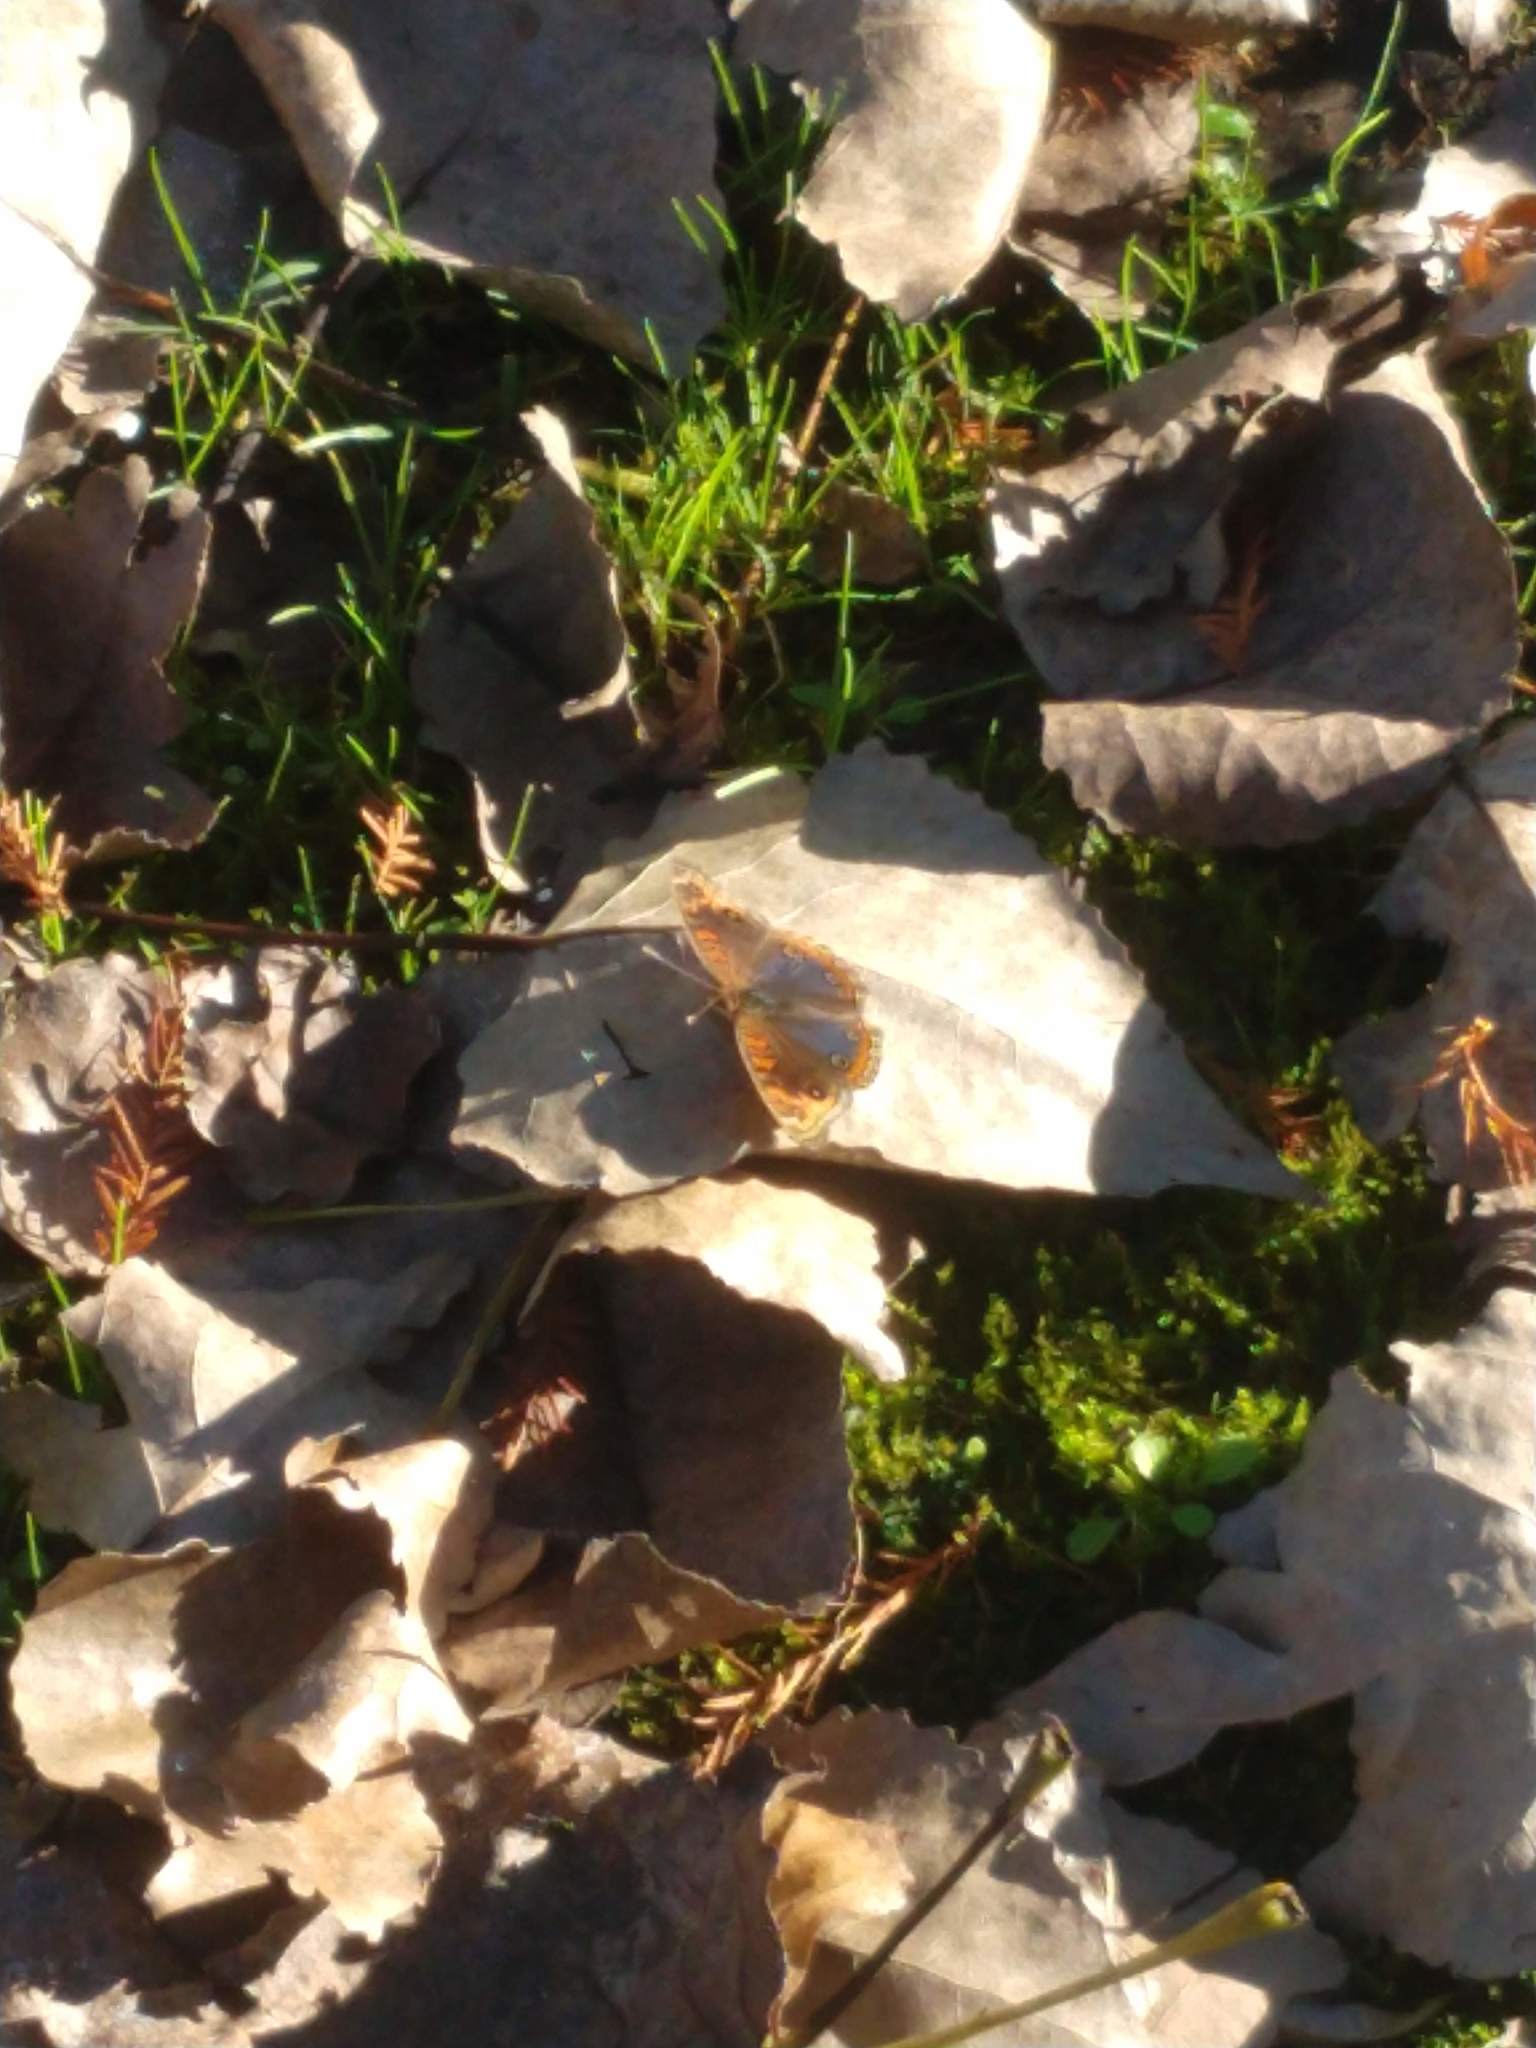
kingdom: Animalia
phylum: Arthropoda
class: Insecta
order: Lepidoptera
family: Nymphalidae
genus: Junonia
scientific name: Junonia lavinia
